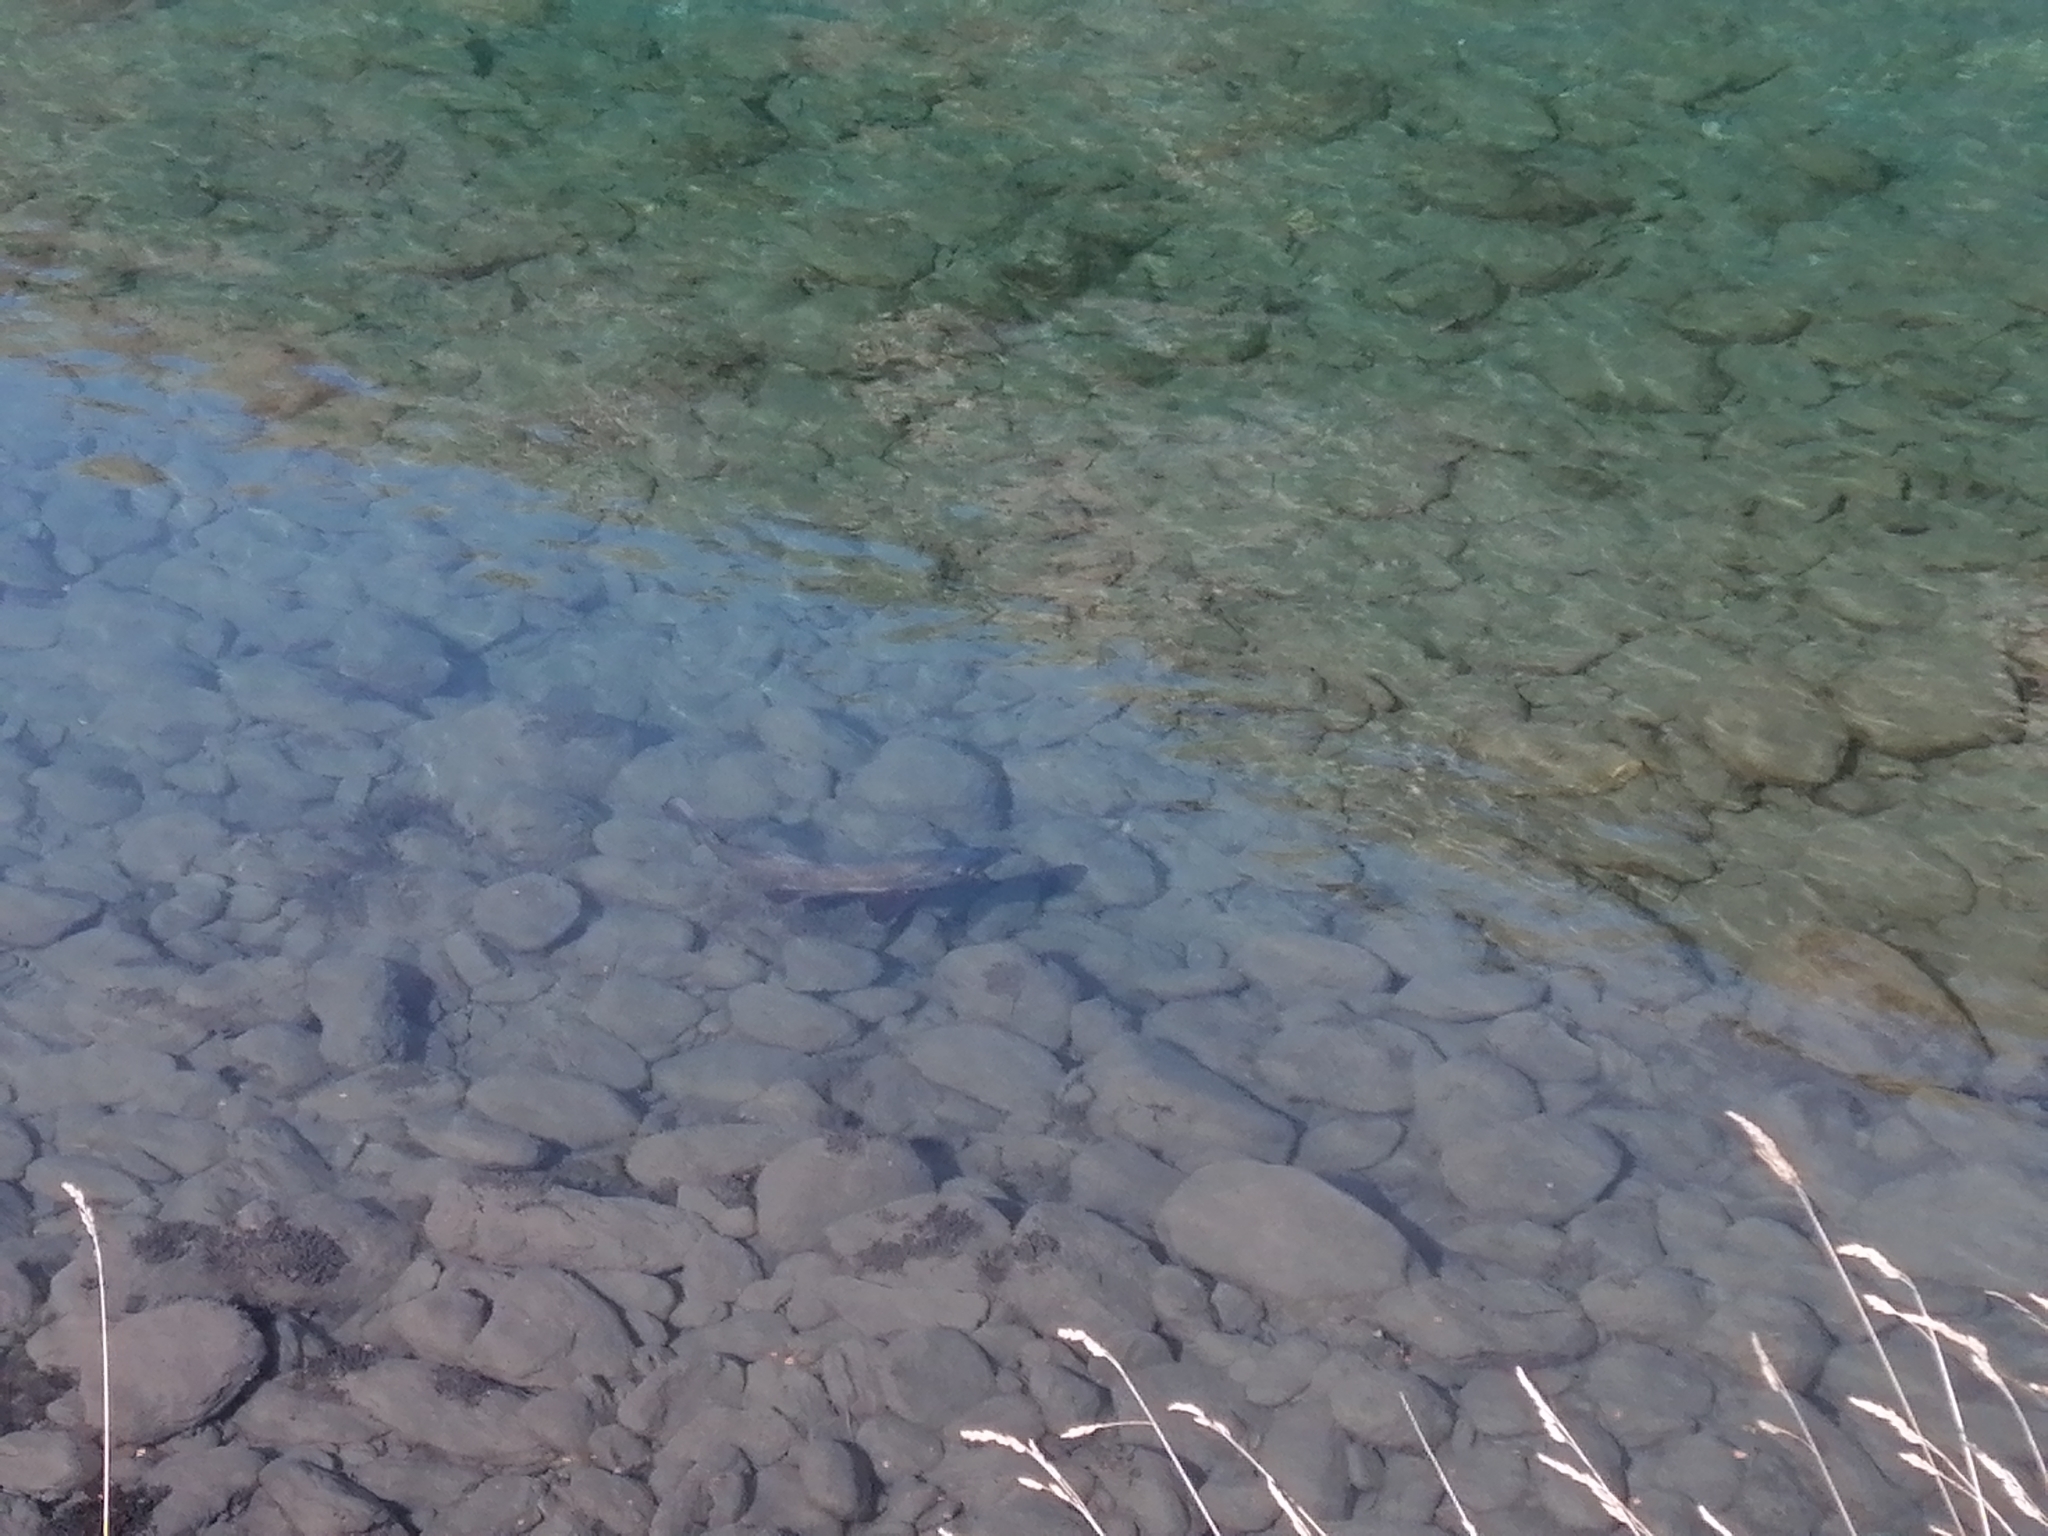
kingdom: Animalia
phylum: Chordata
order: Salmoniformes
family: Salmonidae
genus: Salmo
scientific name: Salmo trutta
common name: Brown trout
